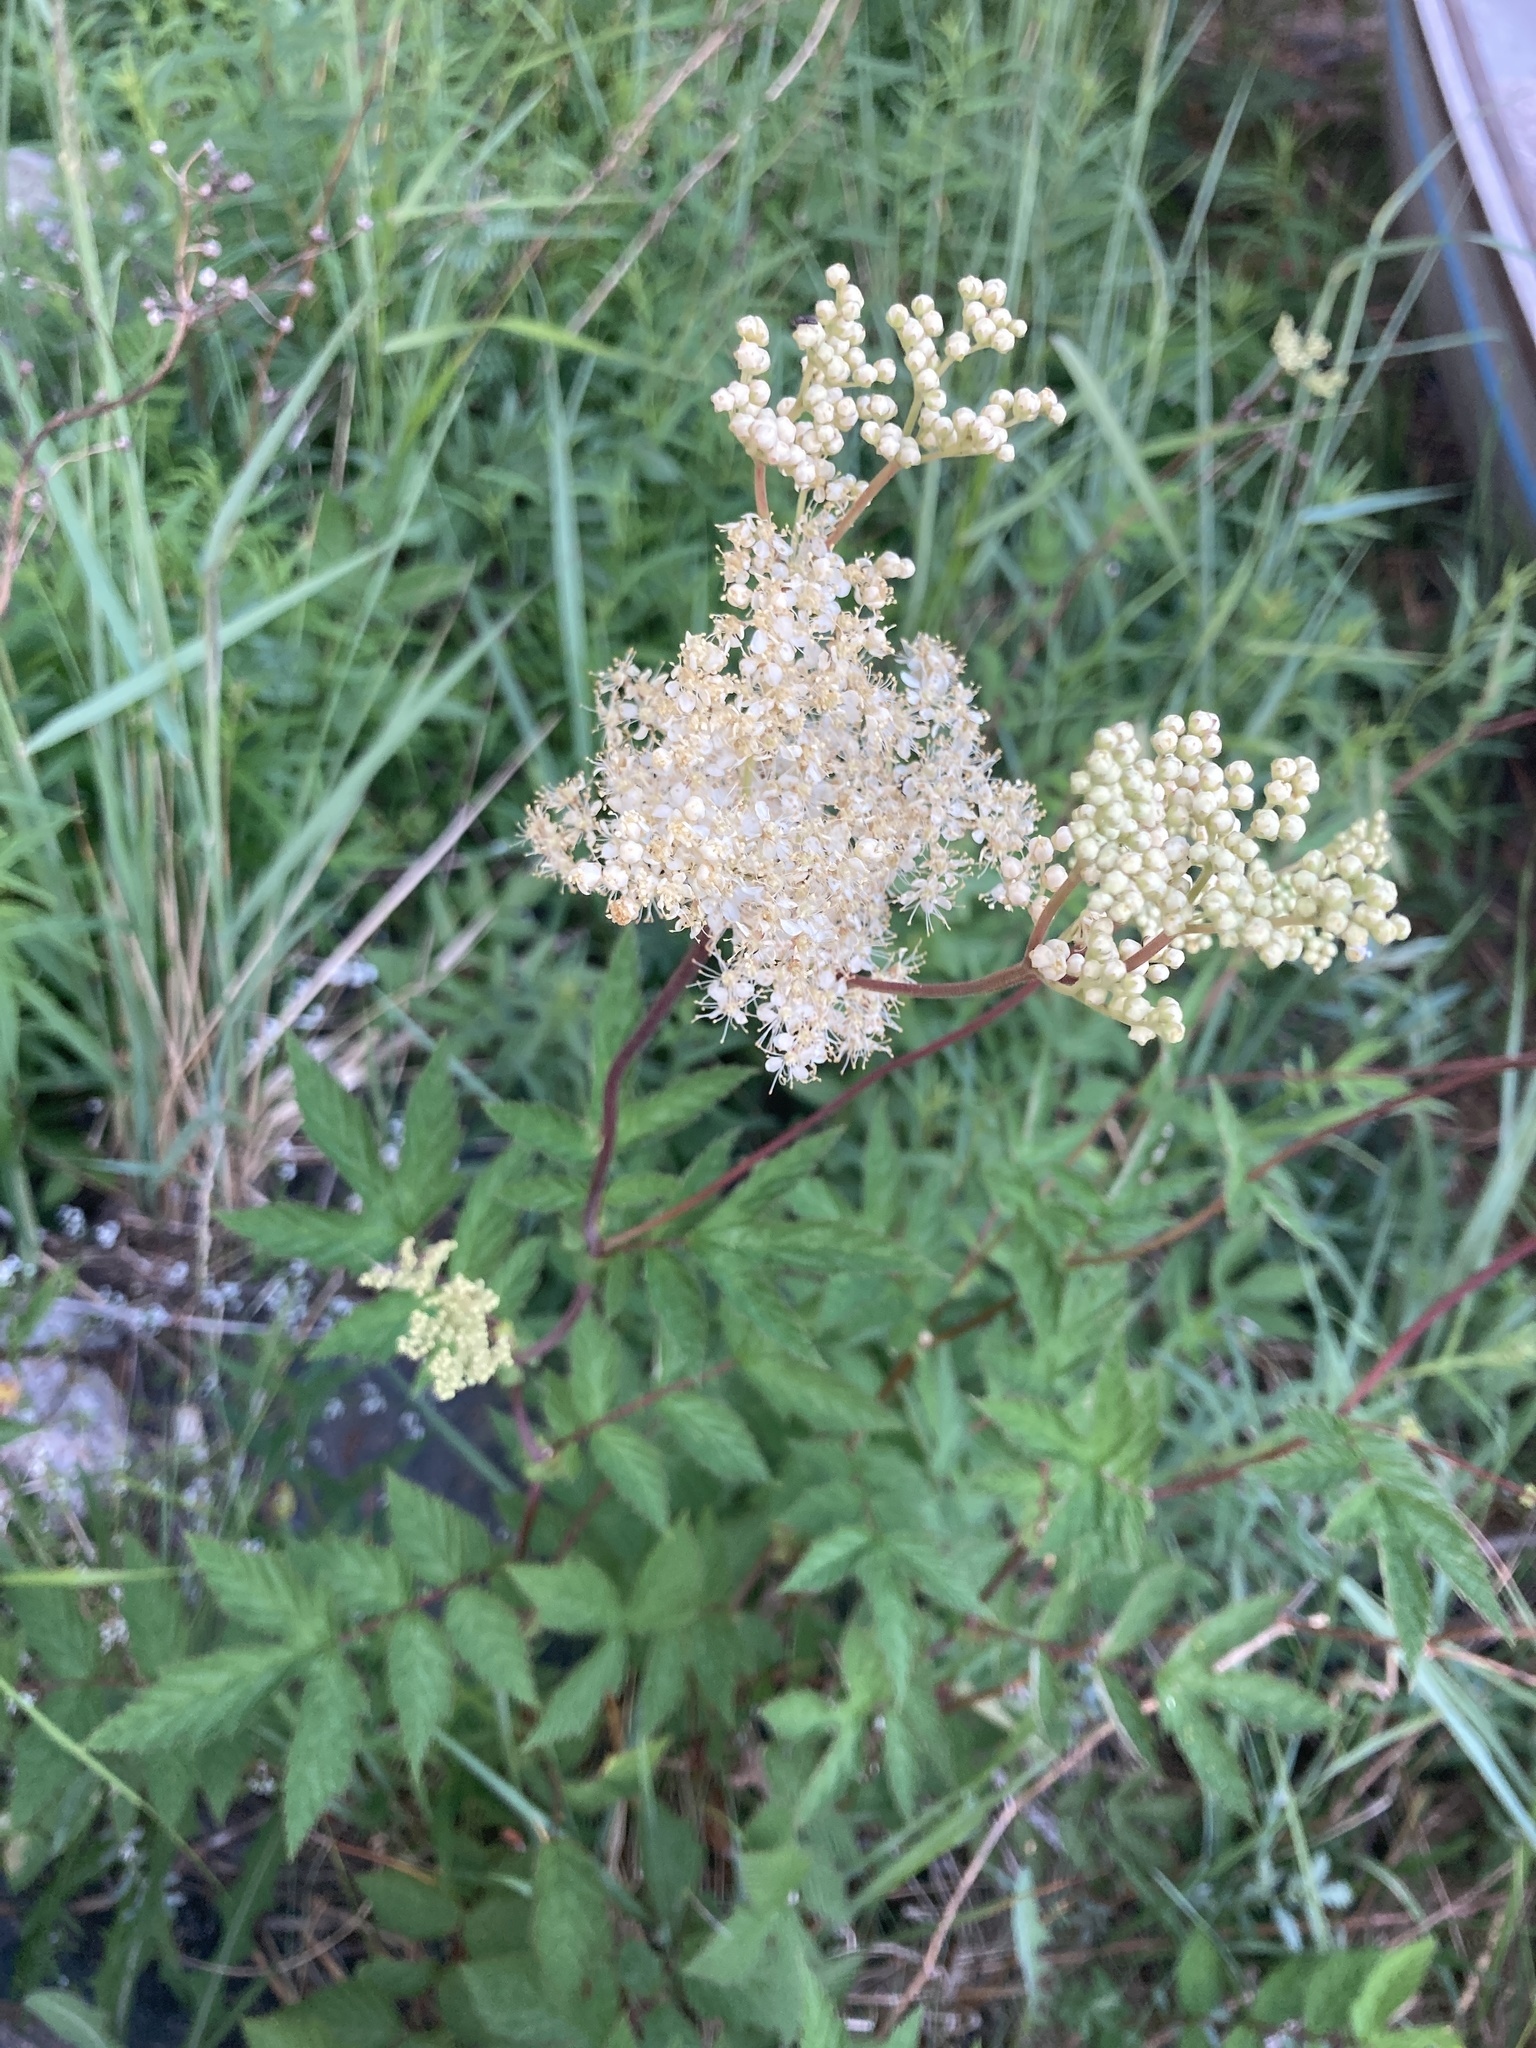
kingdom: Plantae
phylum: Tracheophyta
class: Magnoliopsida
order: Rosales
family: Rosaceae
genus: Filipendula
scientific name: Filipendula ulmaria
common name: Meadowsweet
